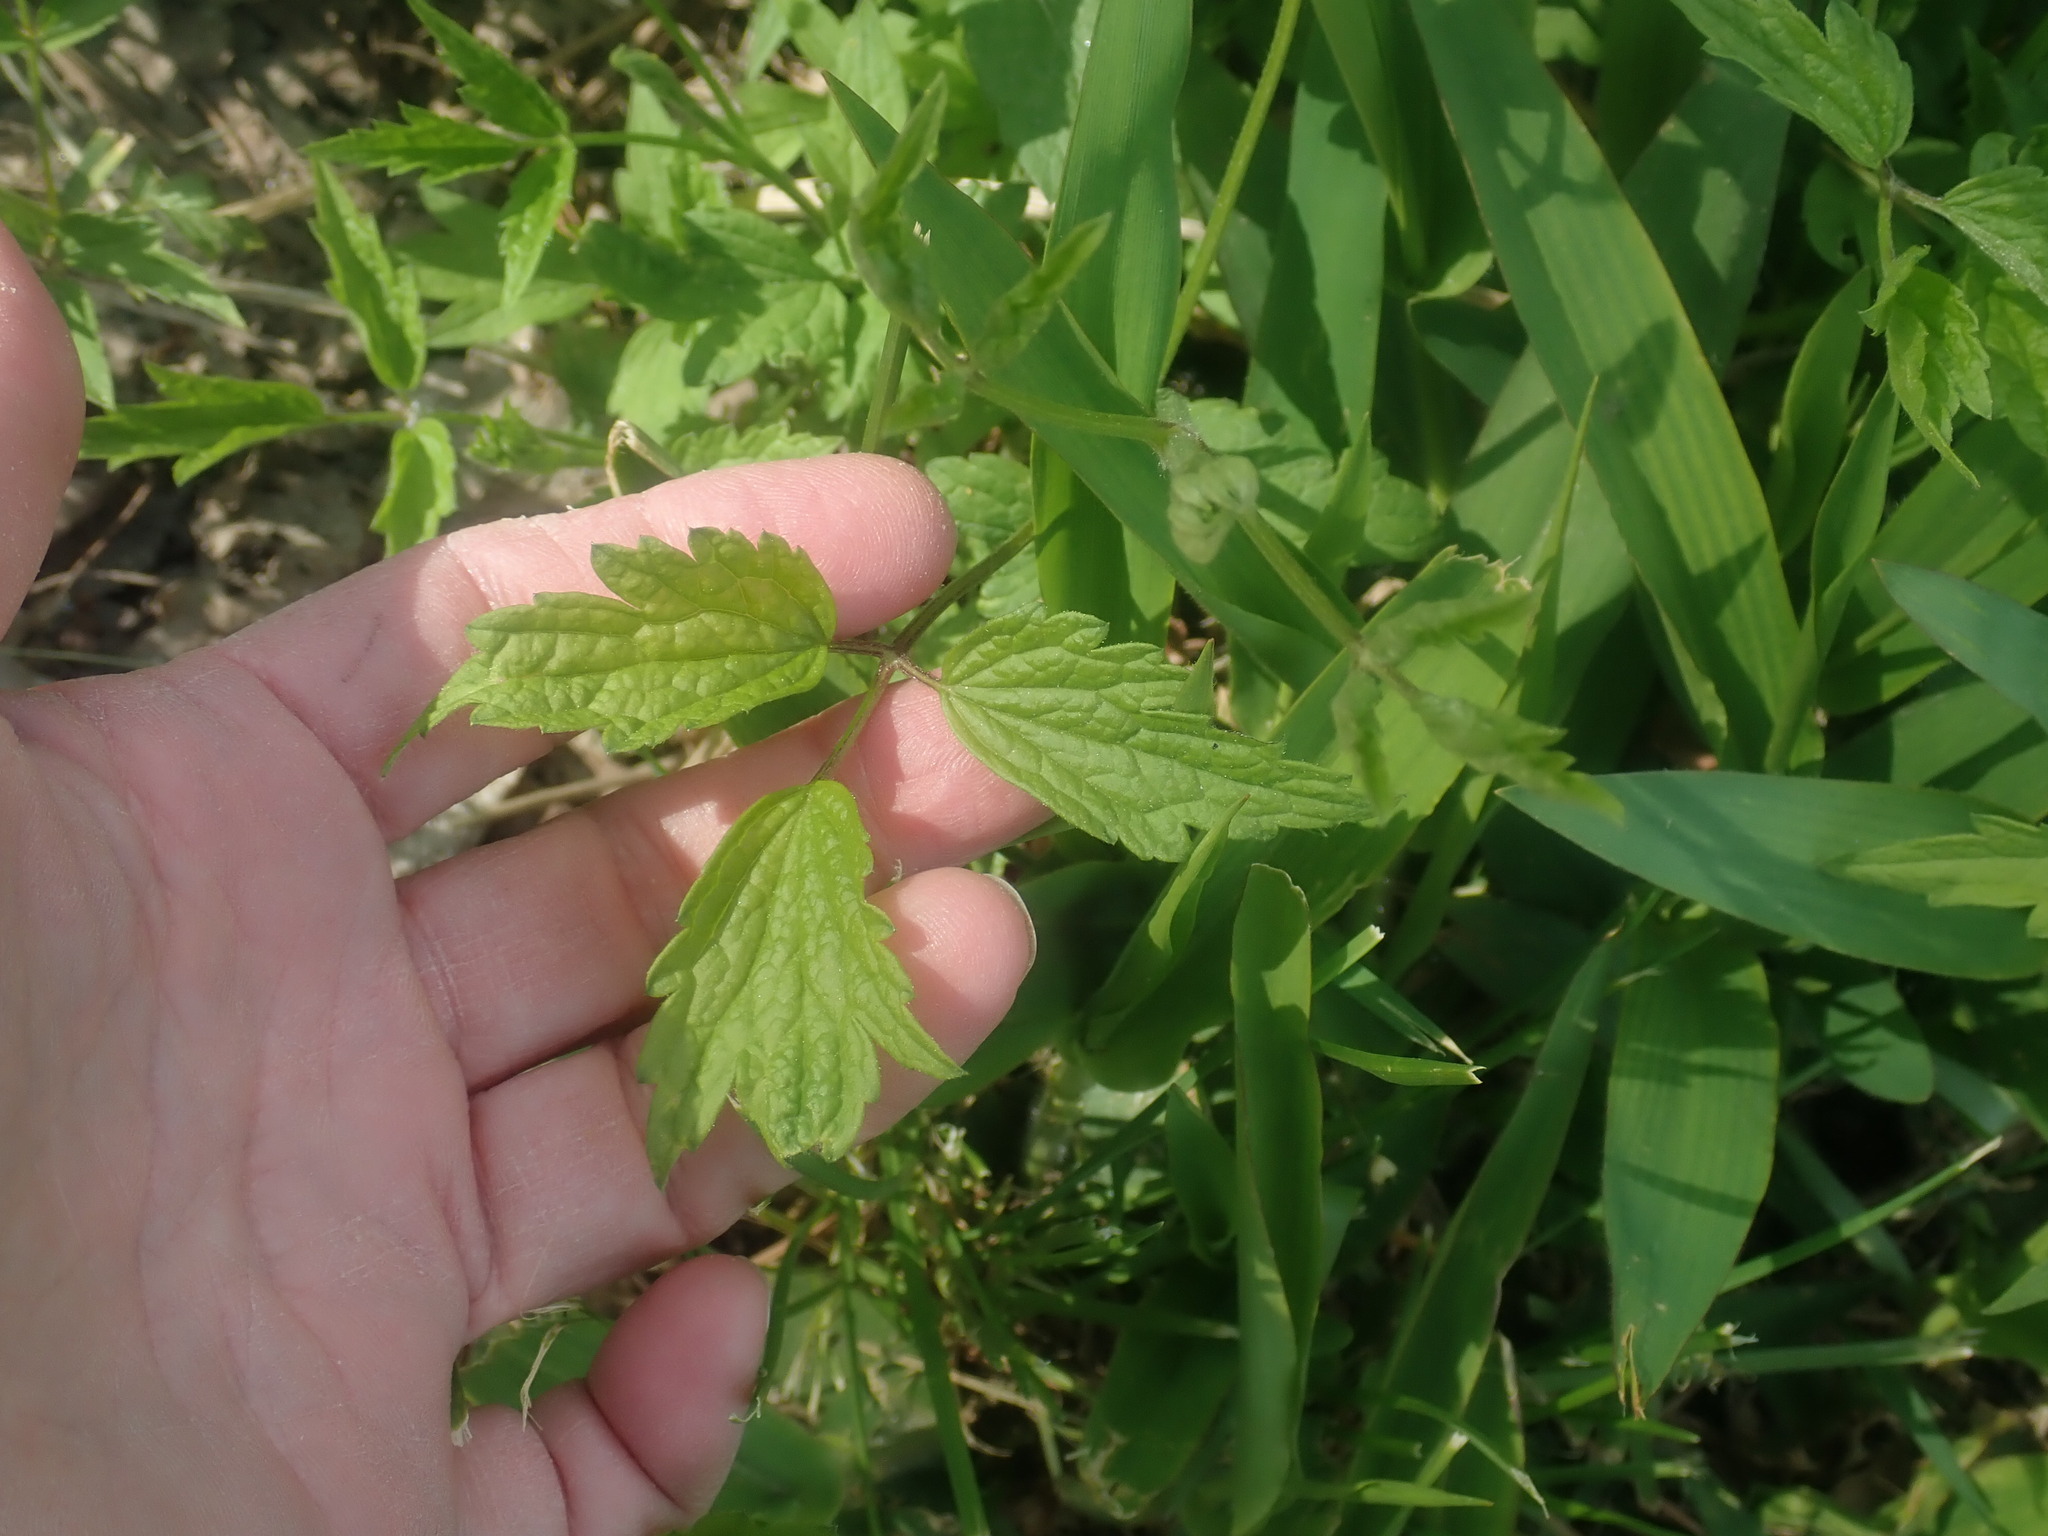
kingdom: Plantae
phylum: Tracheophyta
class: Magnoliopsida
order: Ranunculales
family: Ranunculaceae
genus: Clematis
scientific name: Clematis virginiana
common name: Virgin's-bower
